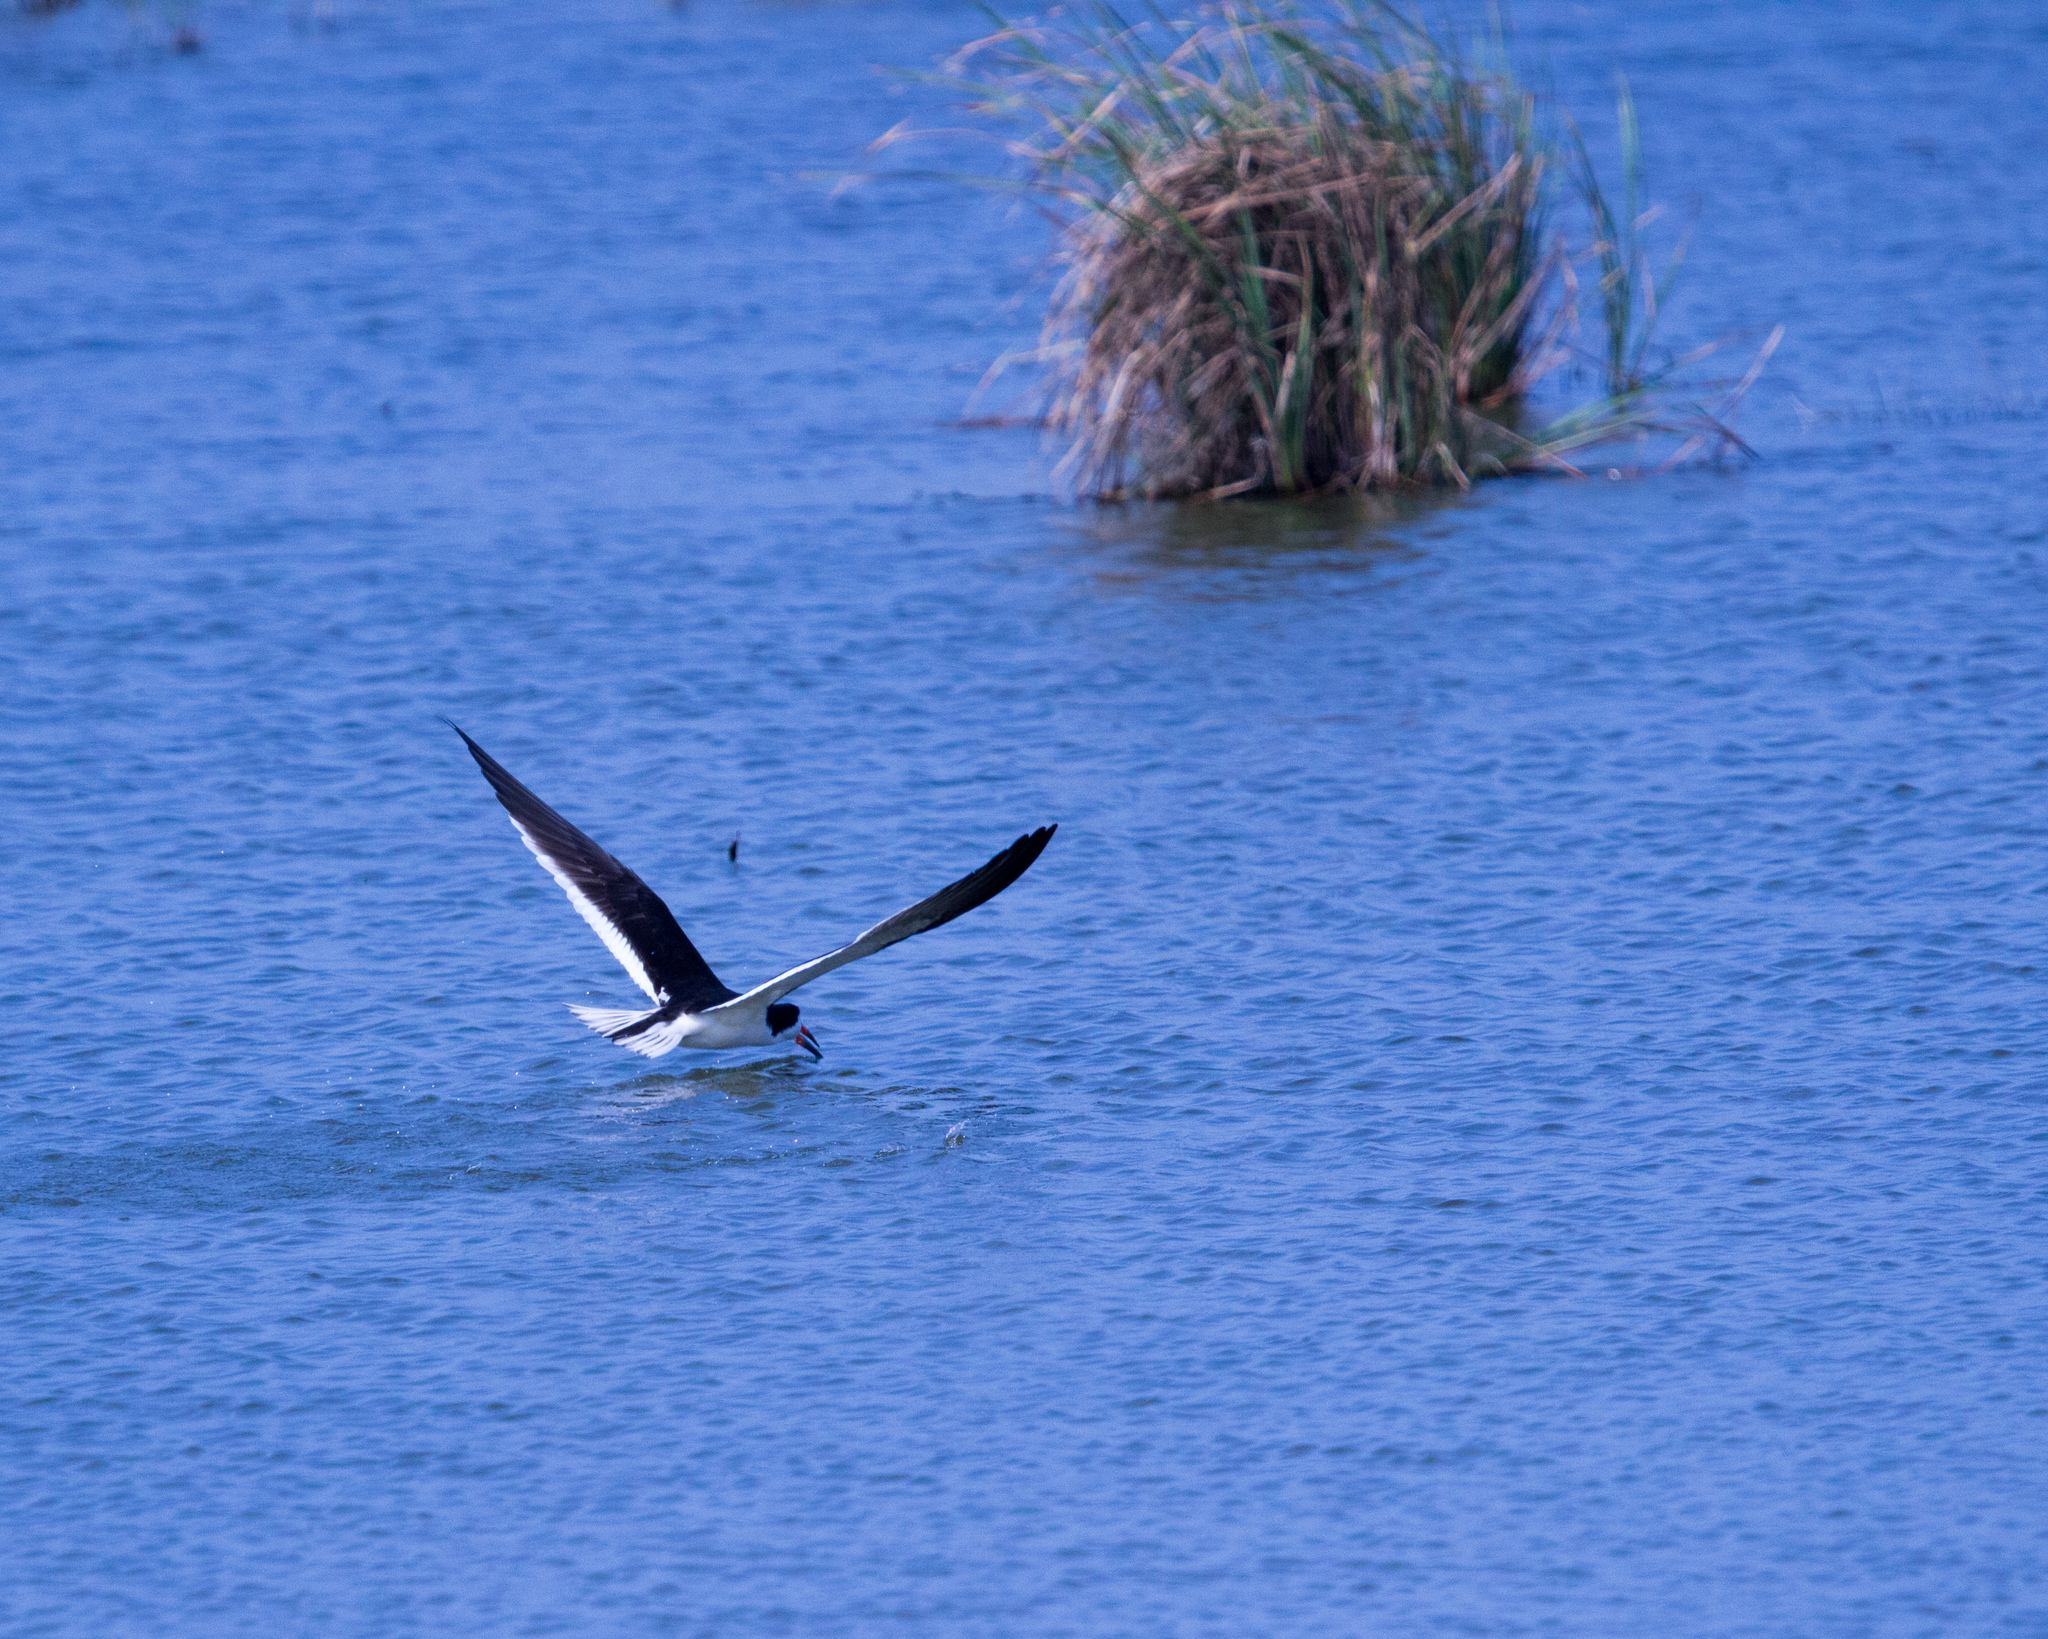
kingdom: Animalia
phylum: Chordata
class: Aves
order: Charadriiformes
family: Laridae
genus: Rynchops
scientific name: Rynchops niger
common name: Black skimmer
